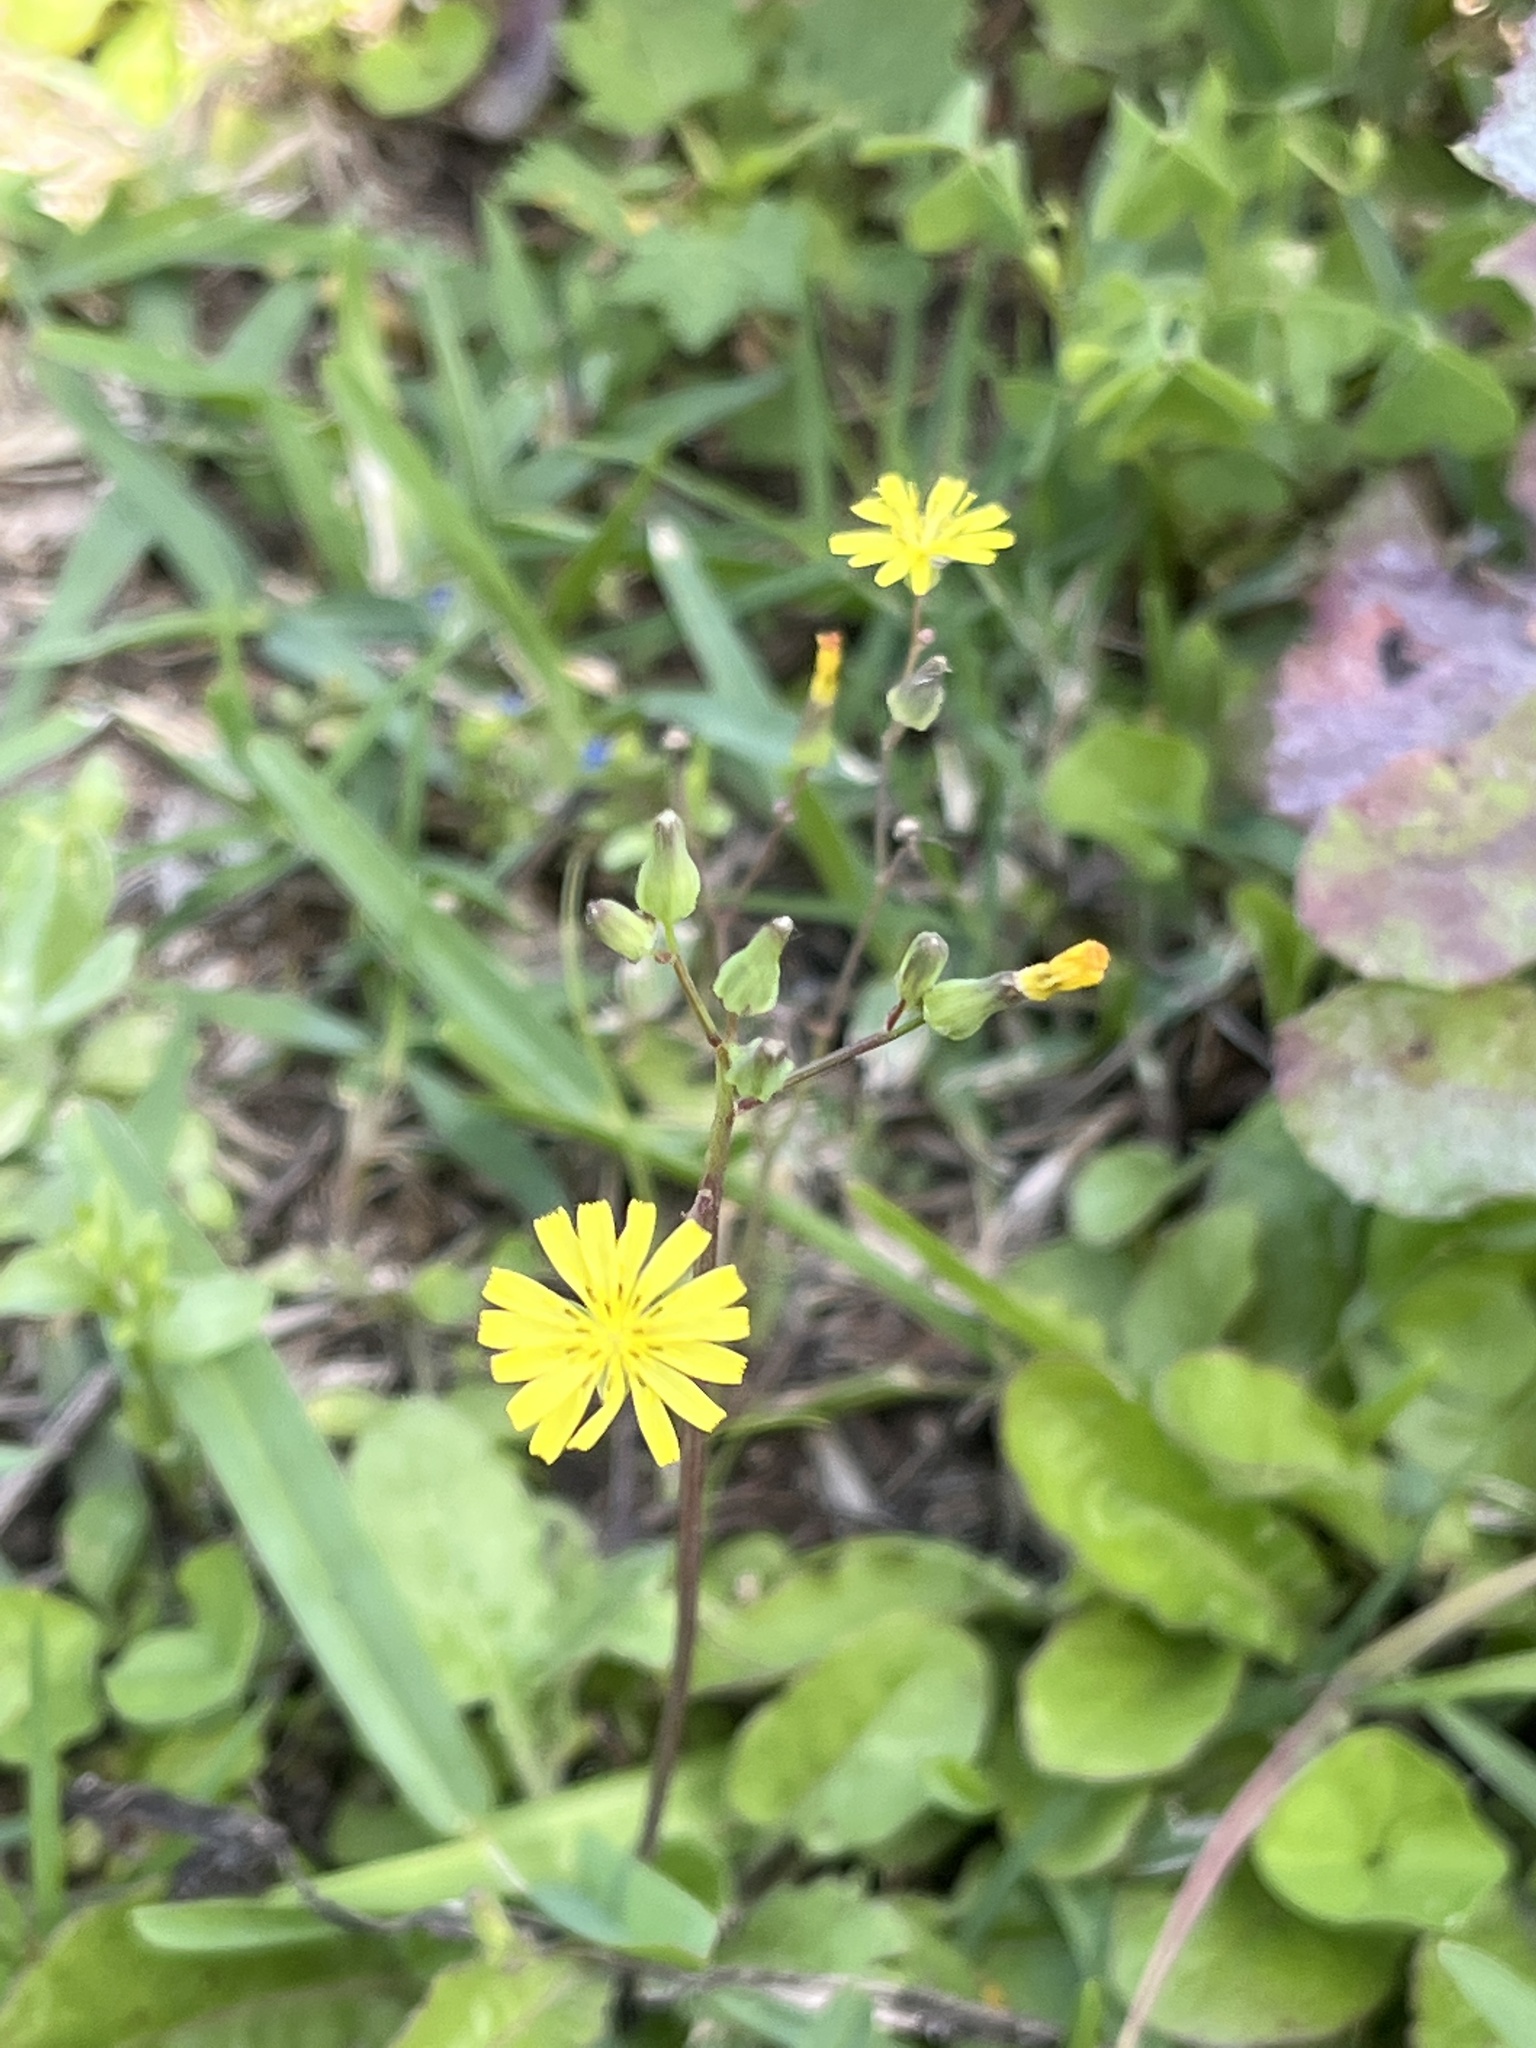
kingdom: Plantae
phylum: Tracheophyta
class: Magnoliopsida
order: Asterales
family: Asteraceae
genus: Youngia
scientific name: Youngia japonica
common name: Oriental false hawksbeard
